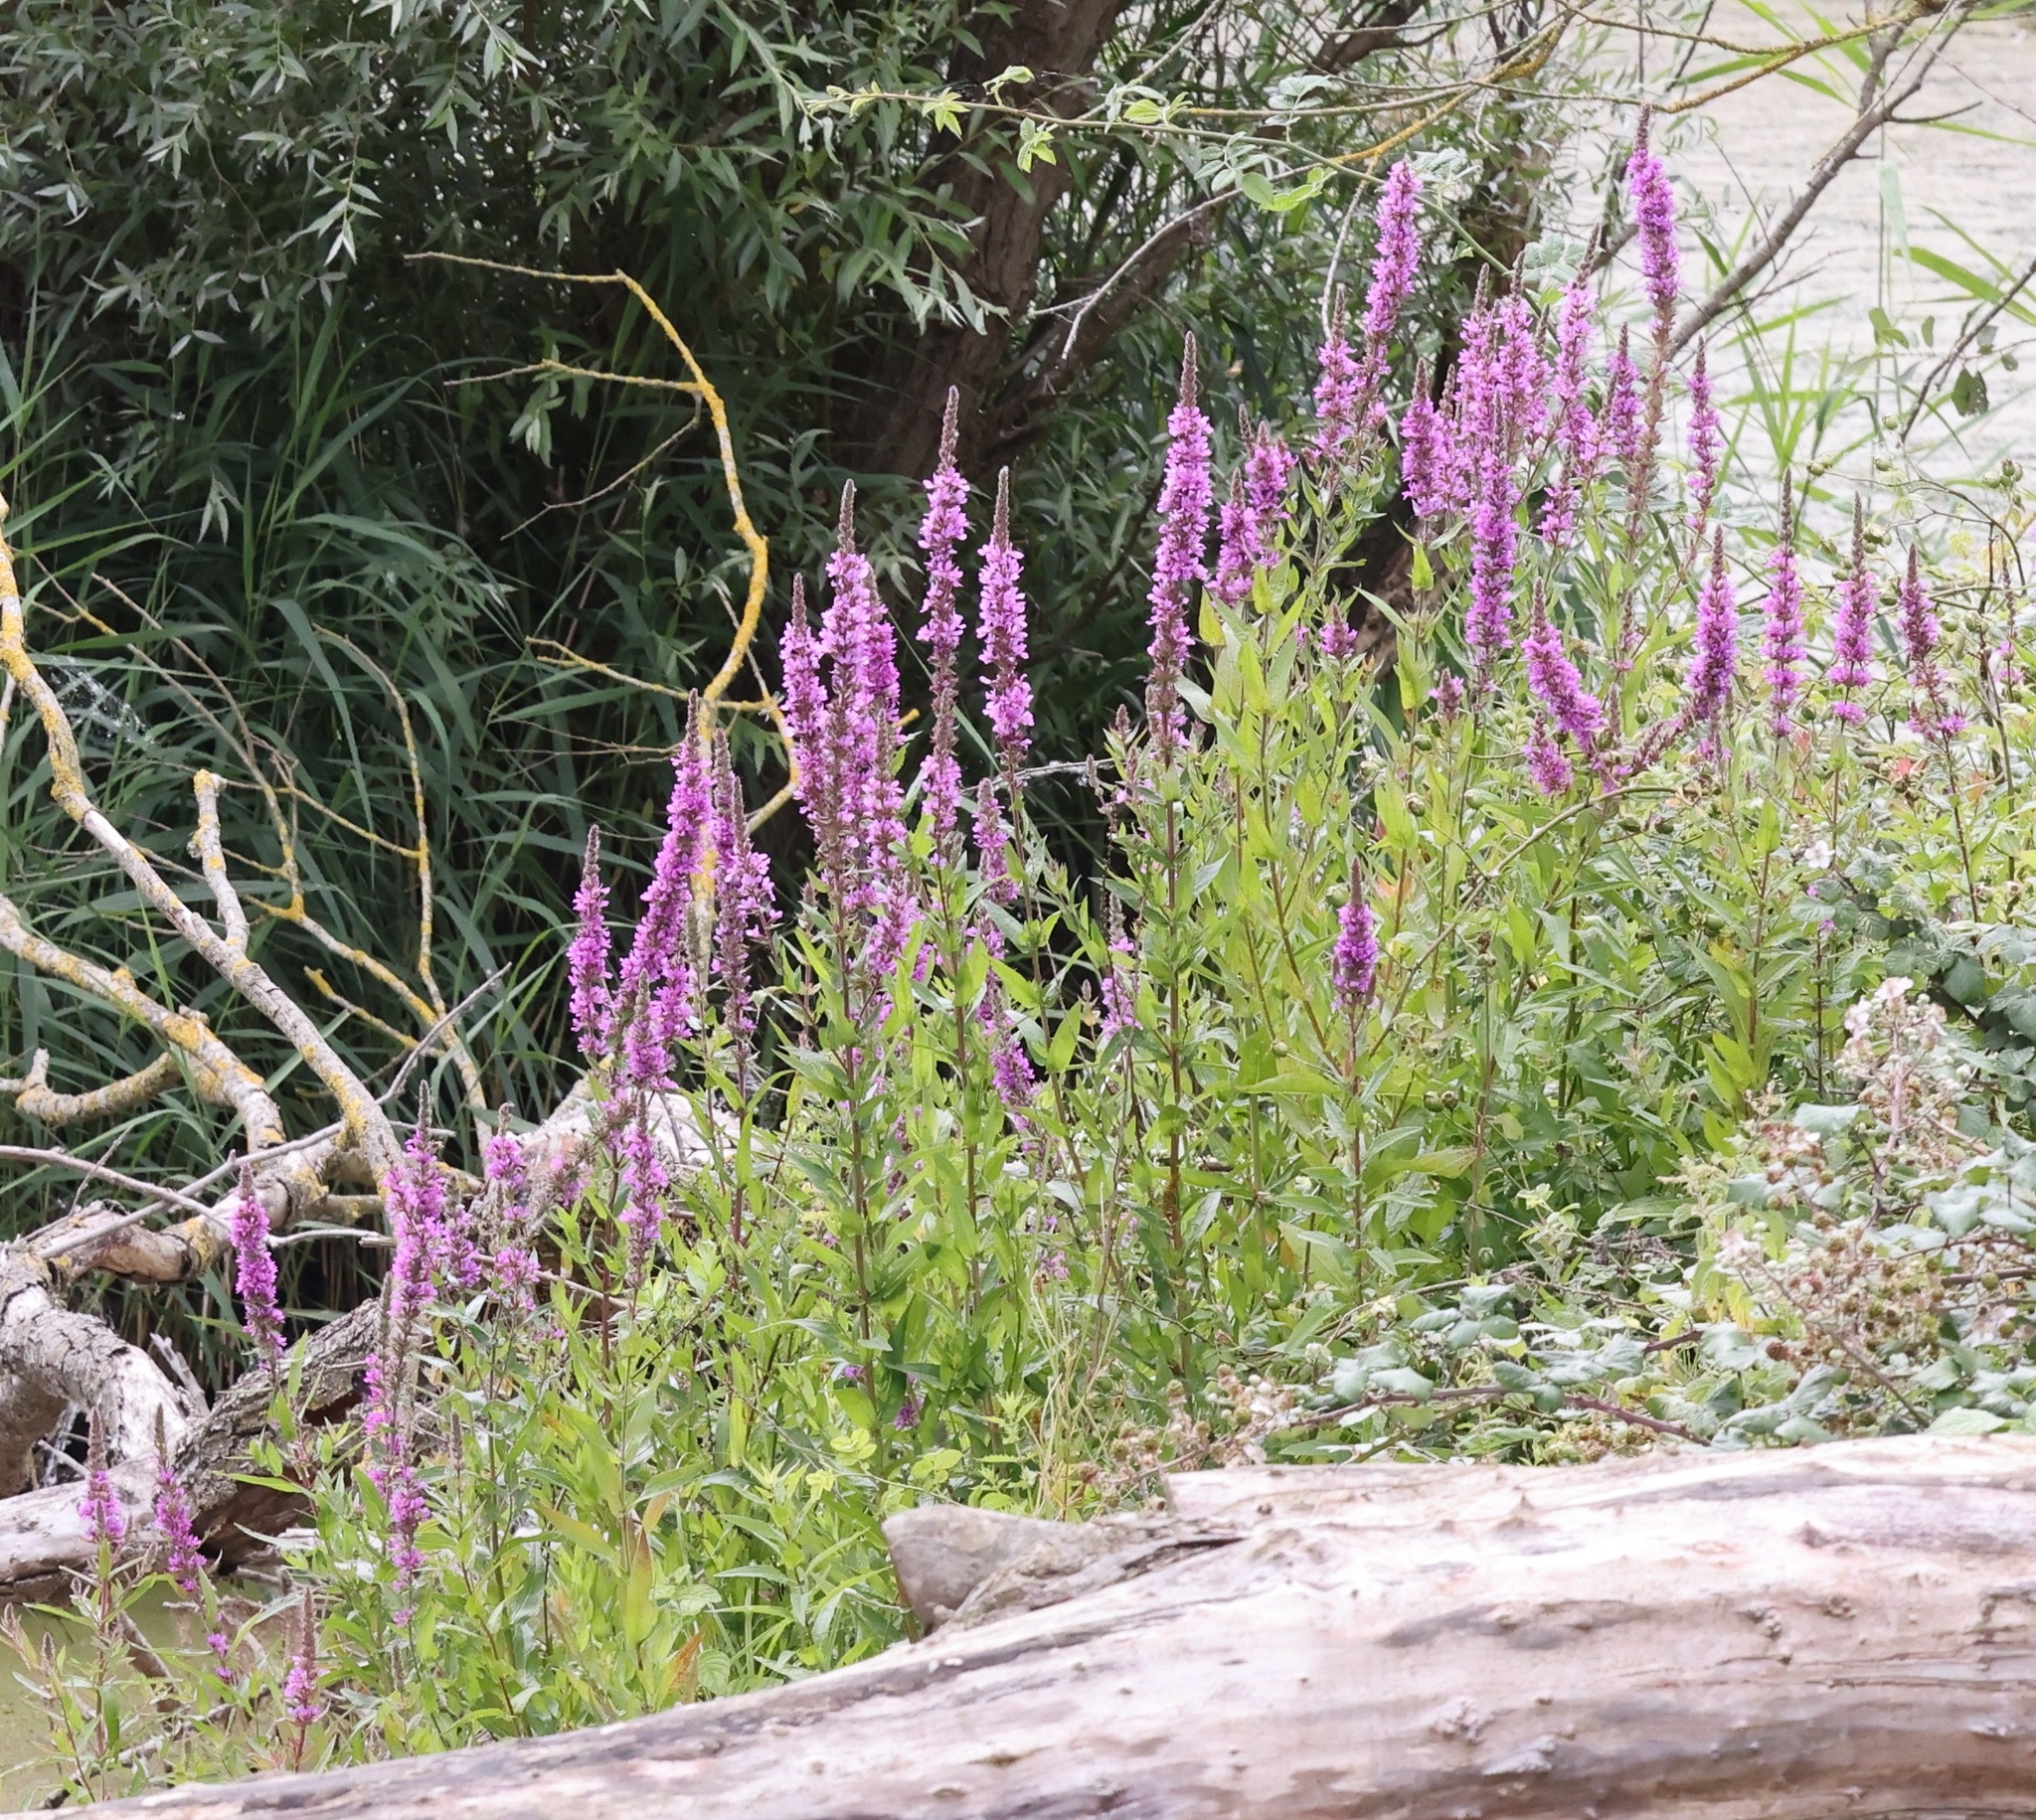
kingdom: Plantae
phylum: Tracheophyta
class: Magnoliopsida
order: Myrtales
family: Lythraceae
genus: Lythrum
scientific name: Lythrum salicaria
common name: Purple loosestrife
